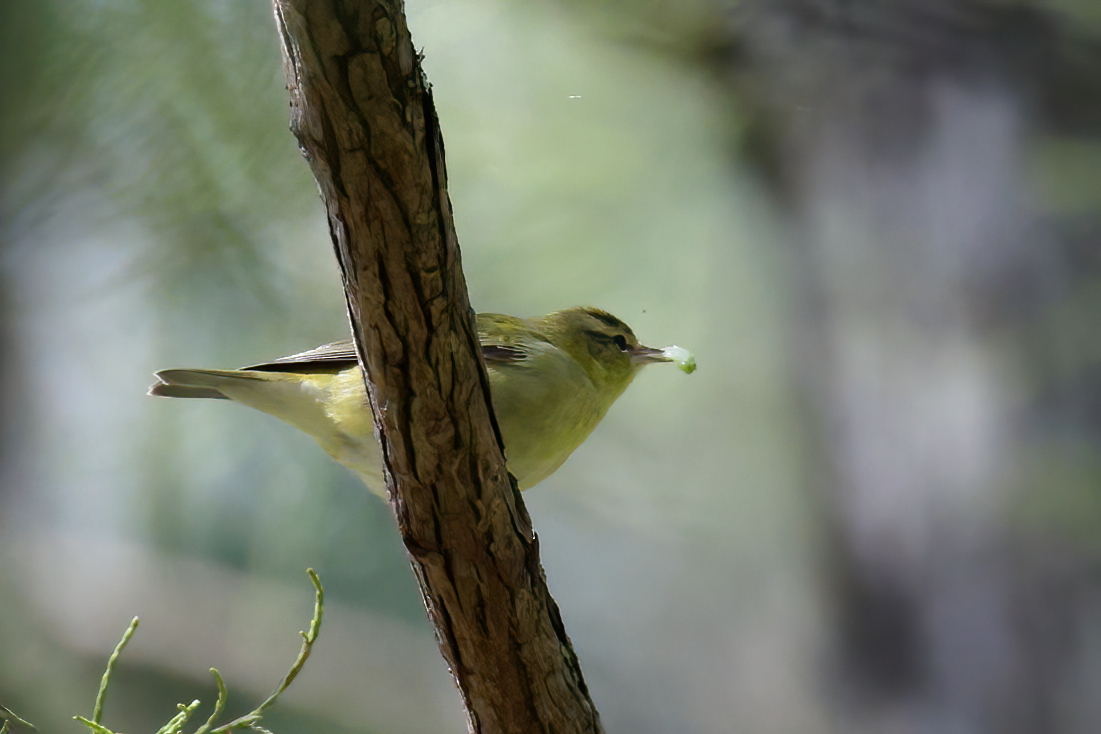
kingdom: Animalia
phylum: Chordata
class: Aves
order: Passeriformes
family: Parulidae
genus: Leiothlypis
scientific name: Leiothlypis peregrina
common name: Tennessee warbler
